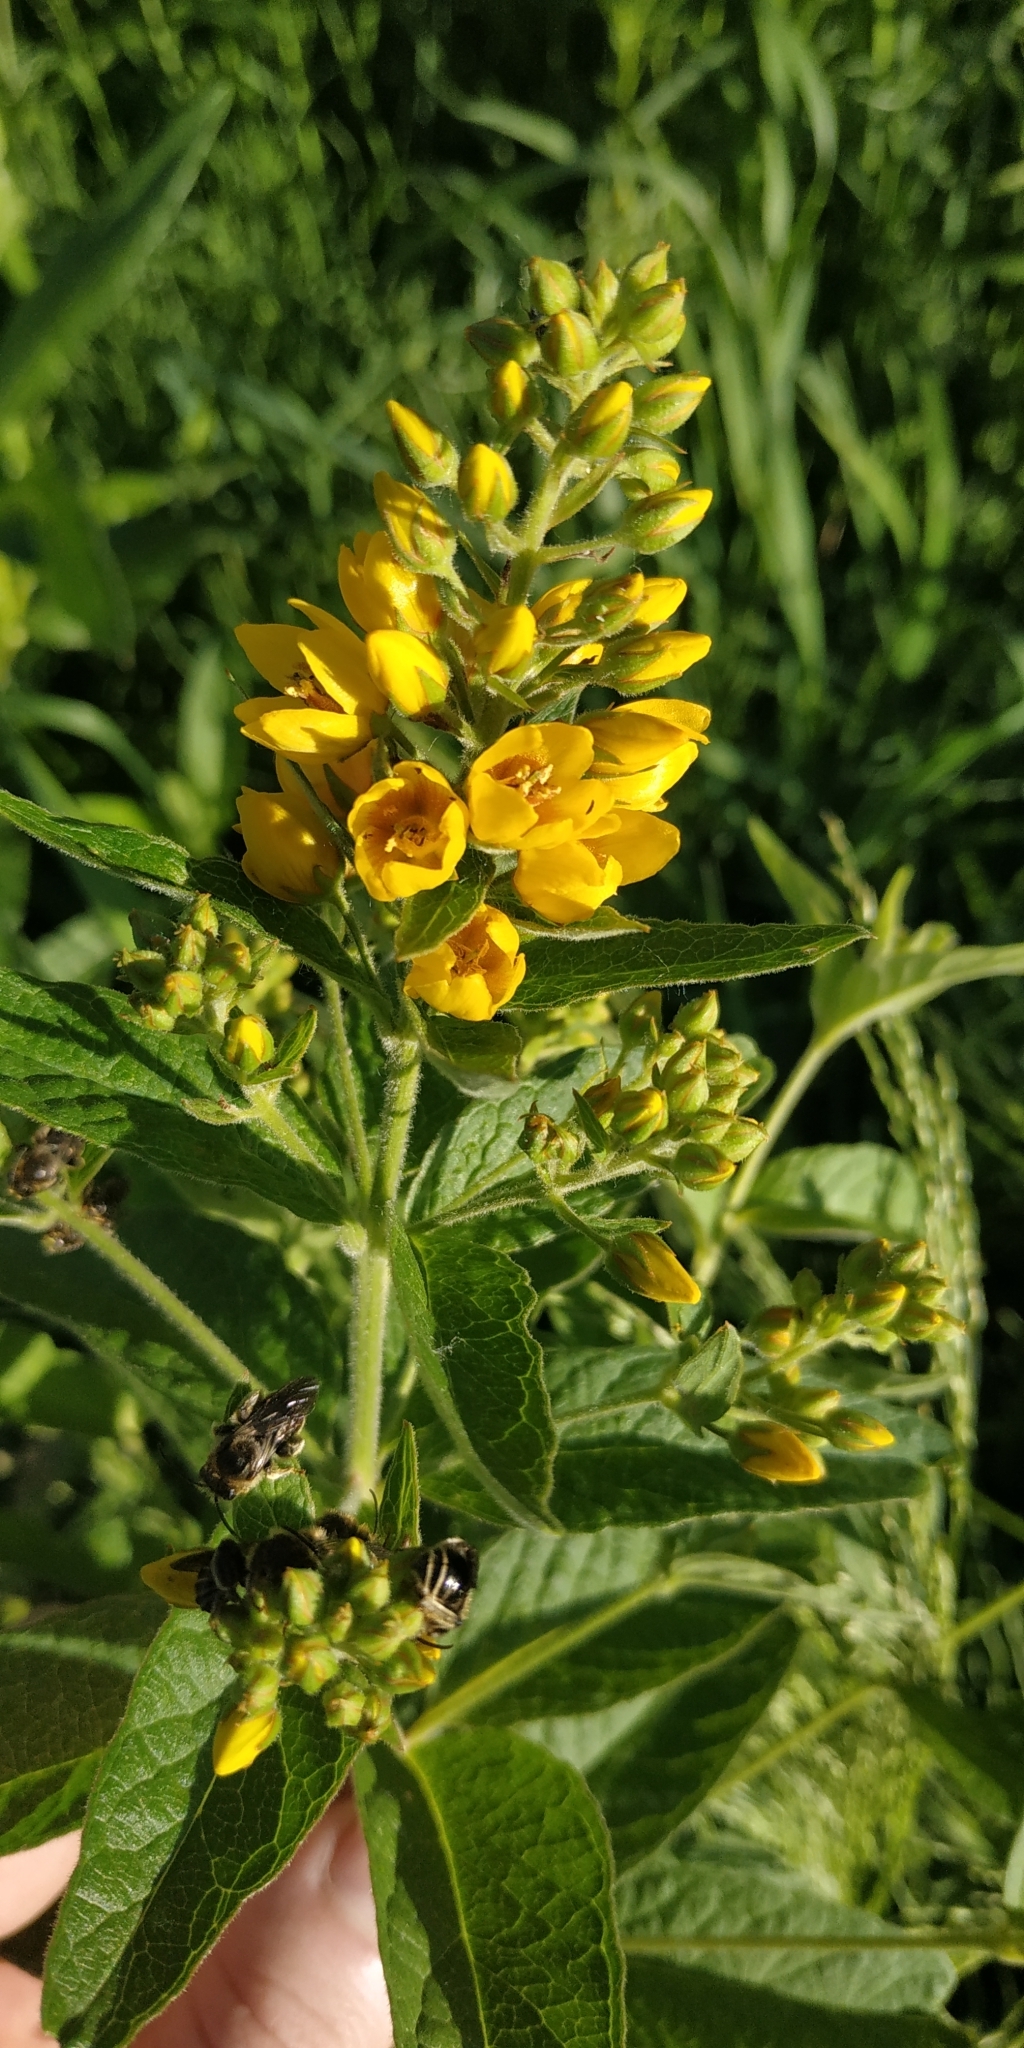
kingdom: Plantae
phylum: Tracheophyta
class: Magnoliopsida
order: Ericales
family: Primulaceae
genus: Lysimachia
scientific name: Lysimachia vulgaris
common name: Yellow loosestrife
